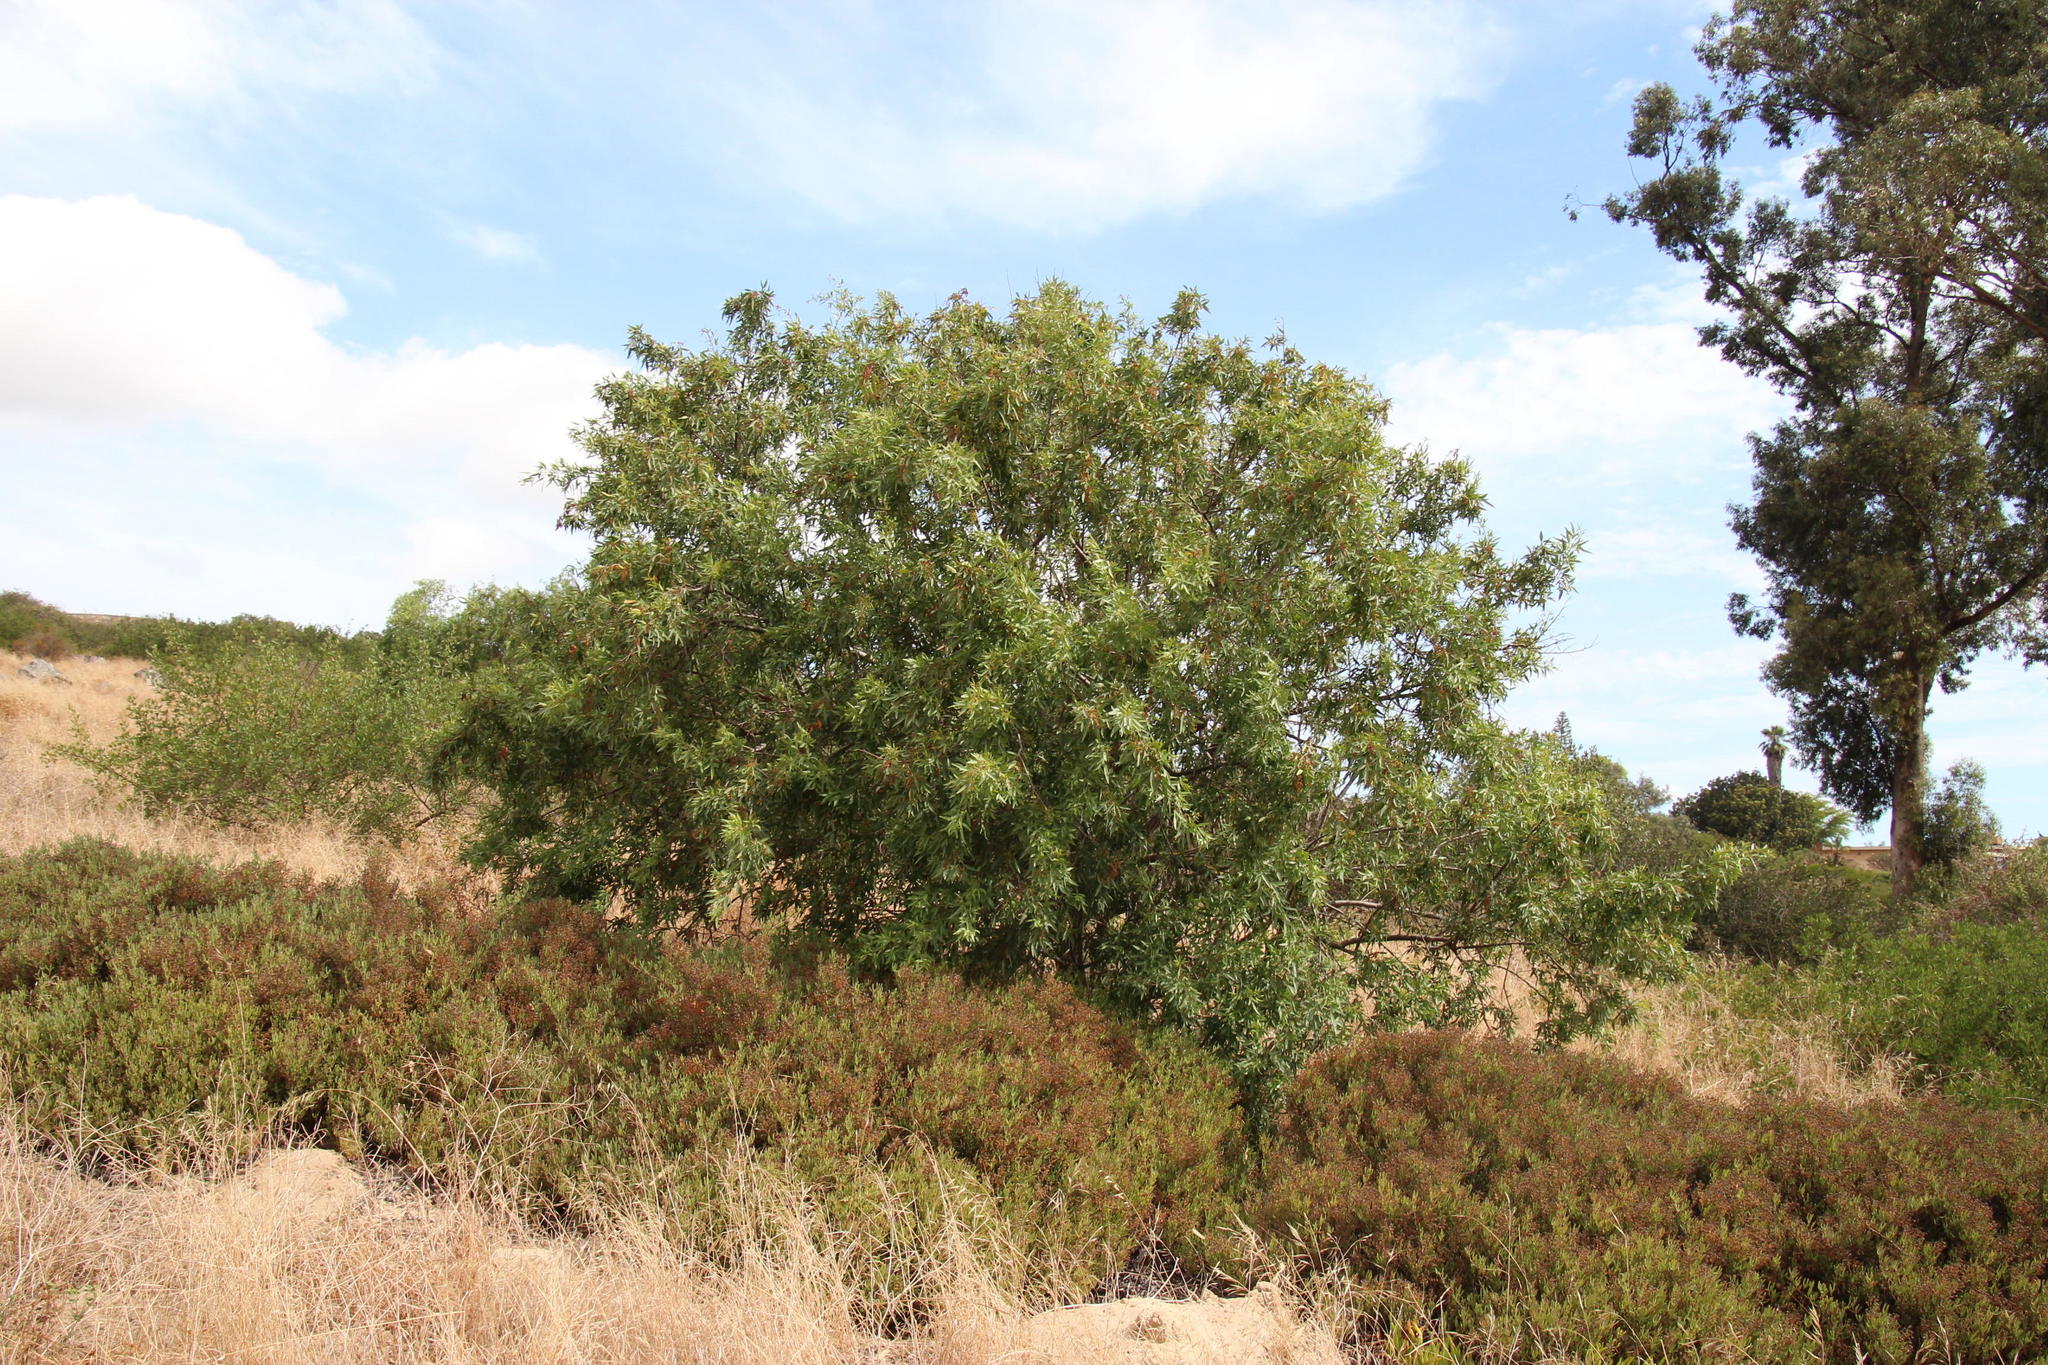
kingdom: Plantae
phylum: Tracheophyta
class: Magnoliopsida
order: Sapindales
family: Anacardiaceae
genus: Searsia
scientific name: Searsia lancea
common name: Cashew
